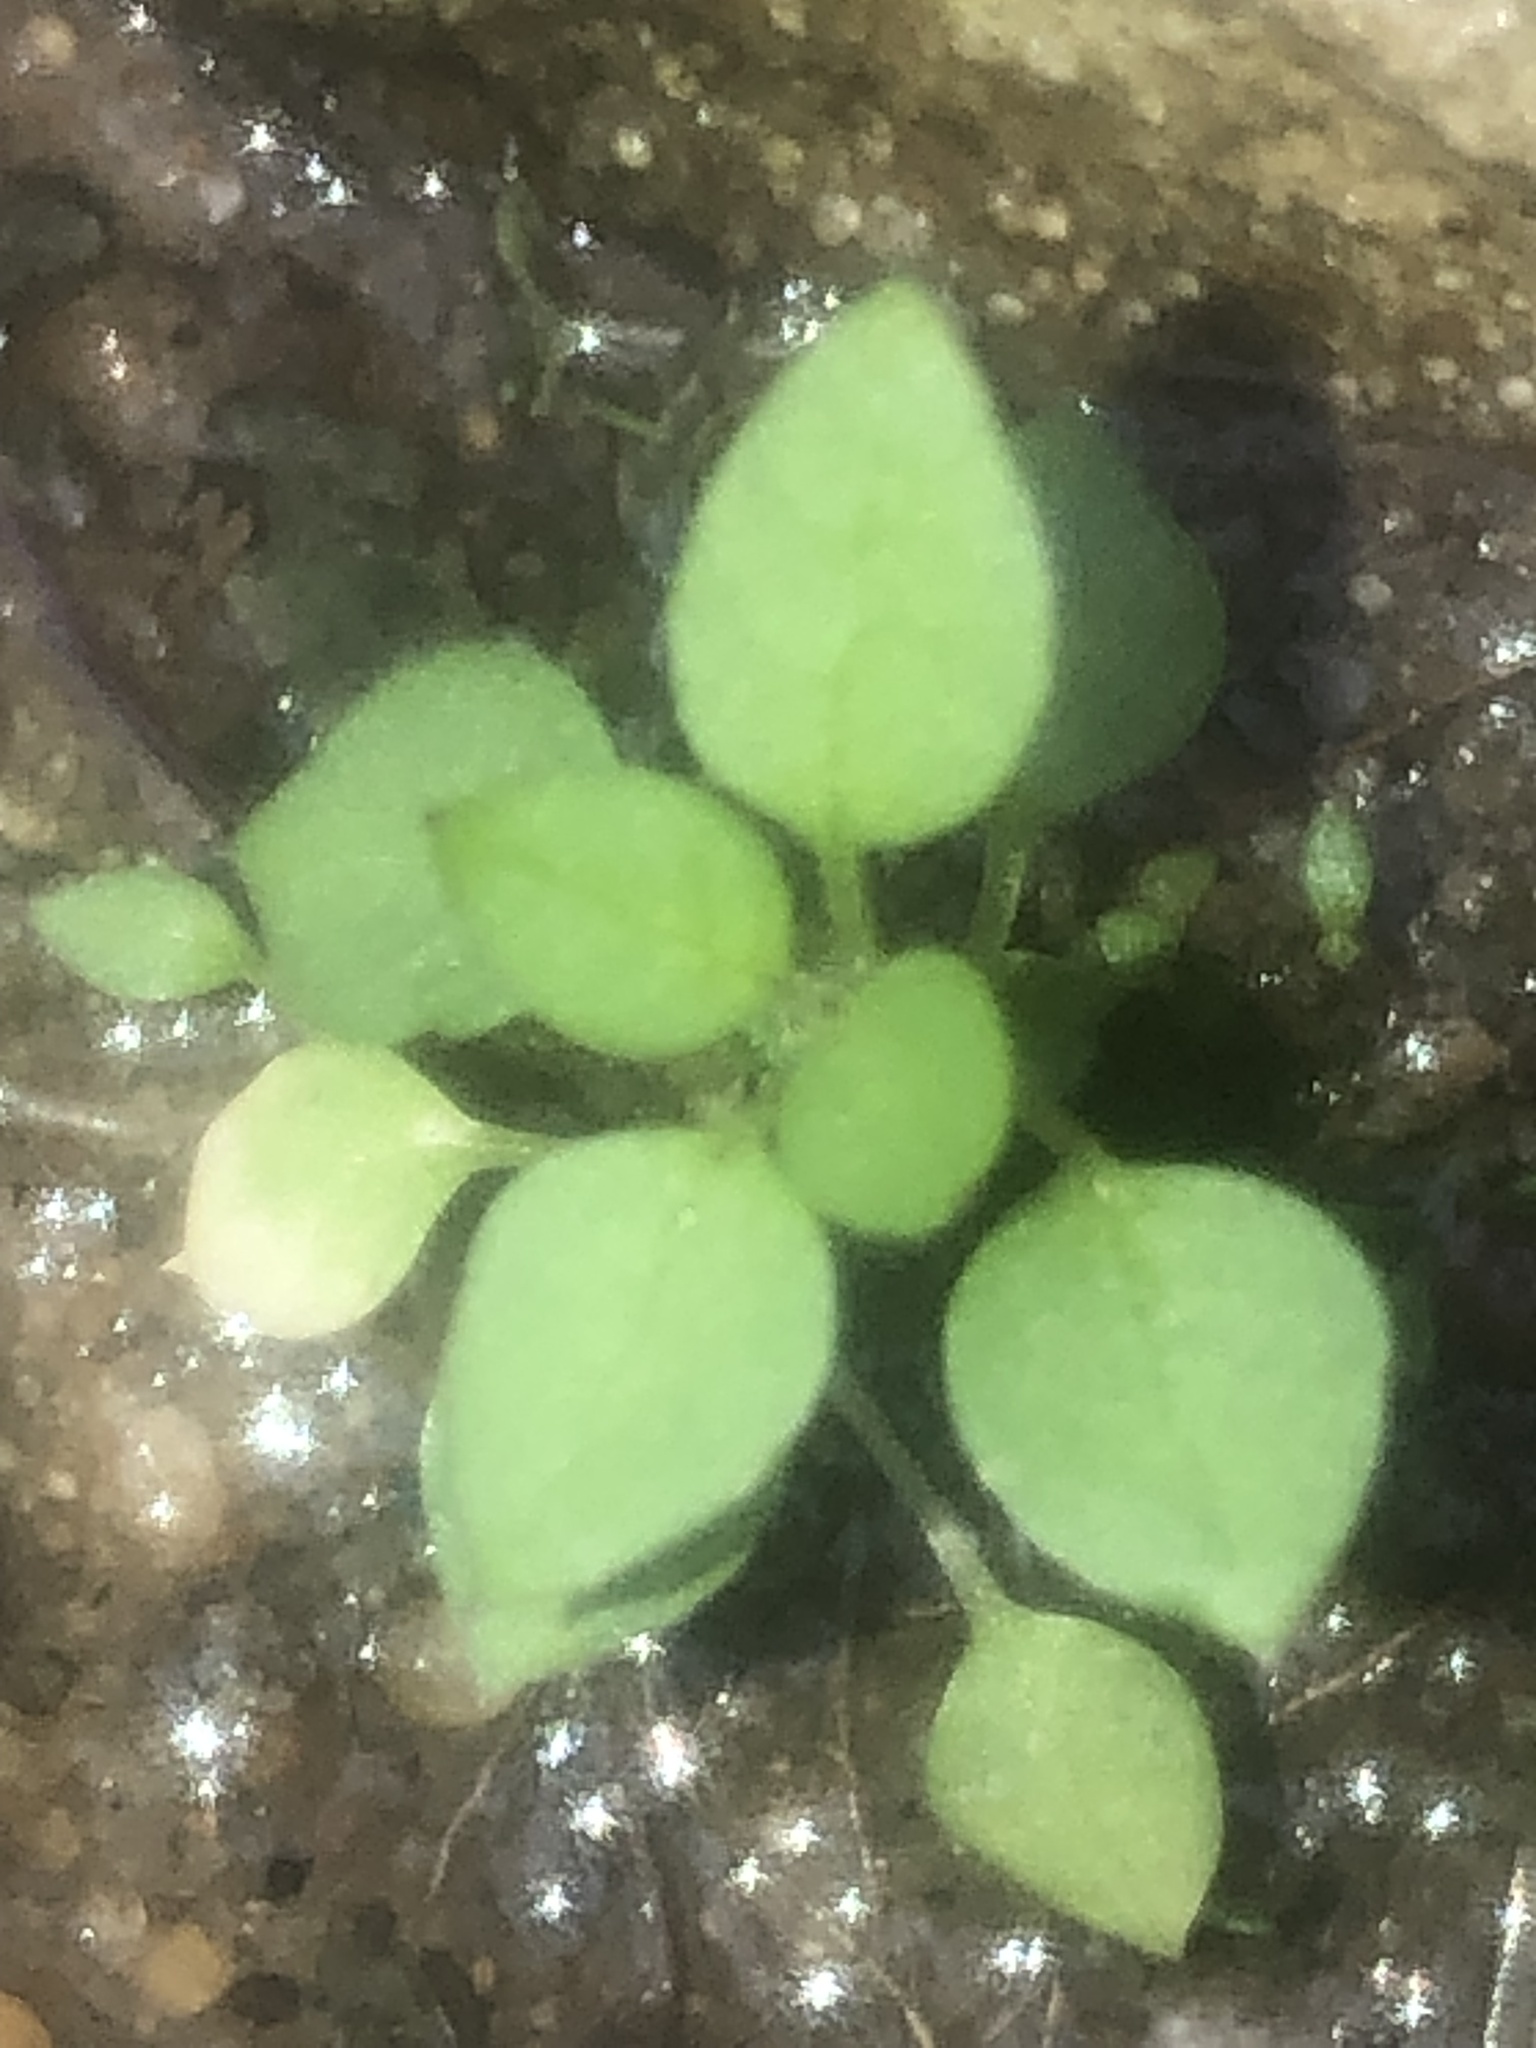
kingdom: Plantae
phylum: Tracheophyta
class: Magnoliopsida
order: Caryophyllales
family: Caryophyllaceae
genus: Stellaria
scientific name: Stellaria media
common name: Common chickweed
